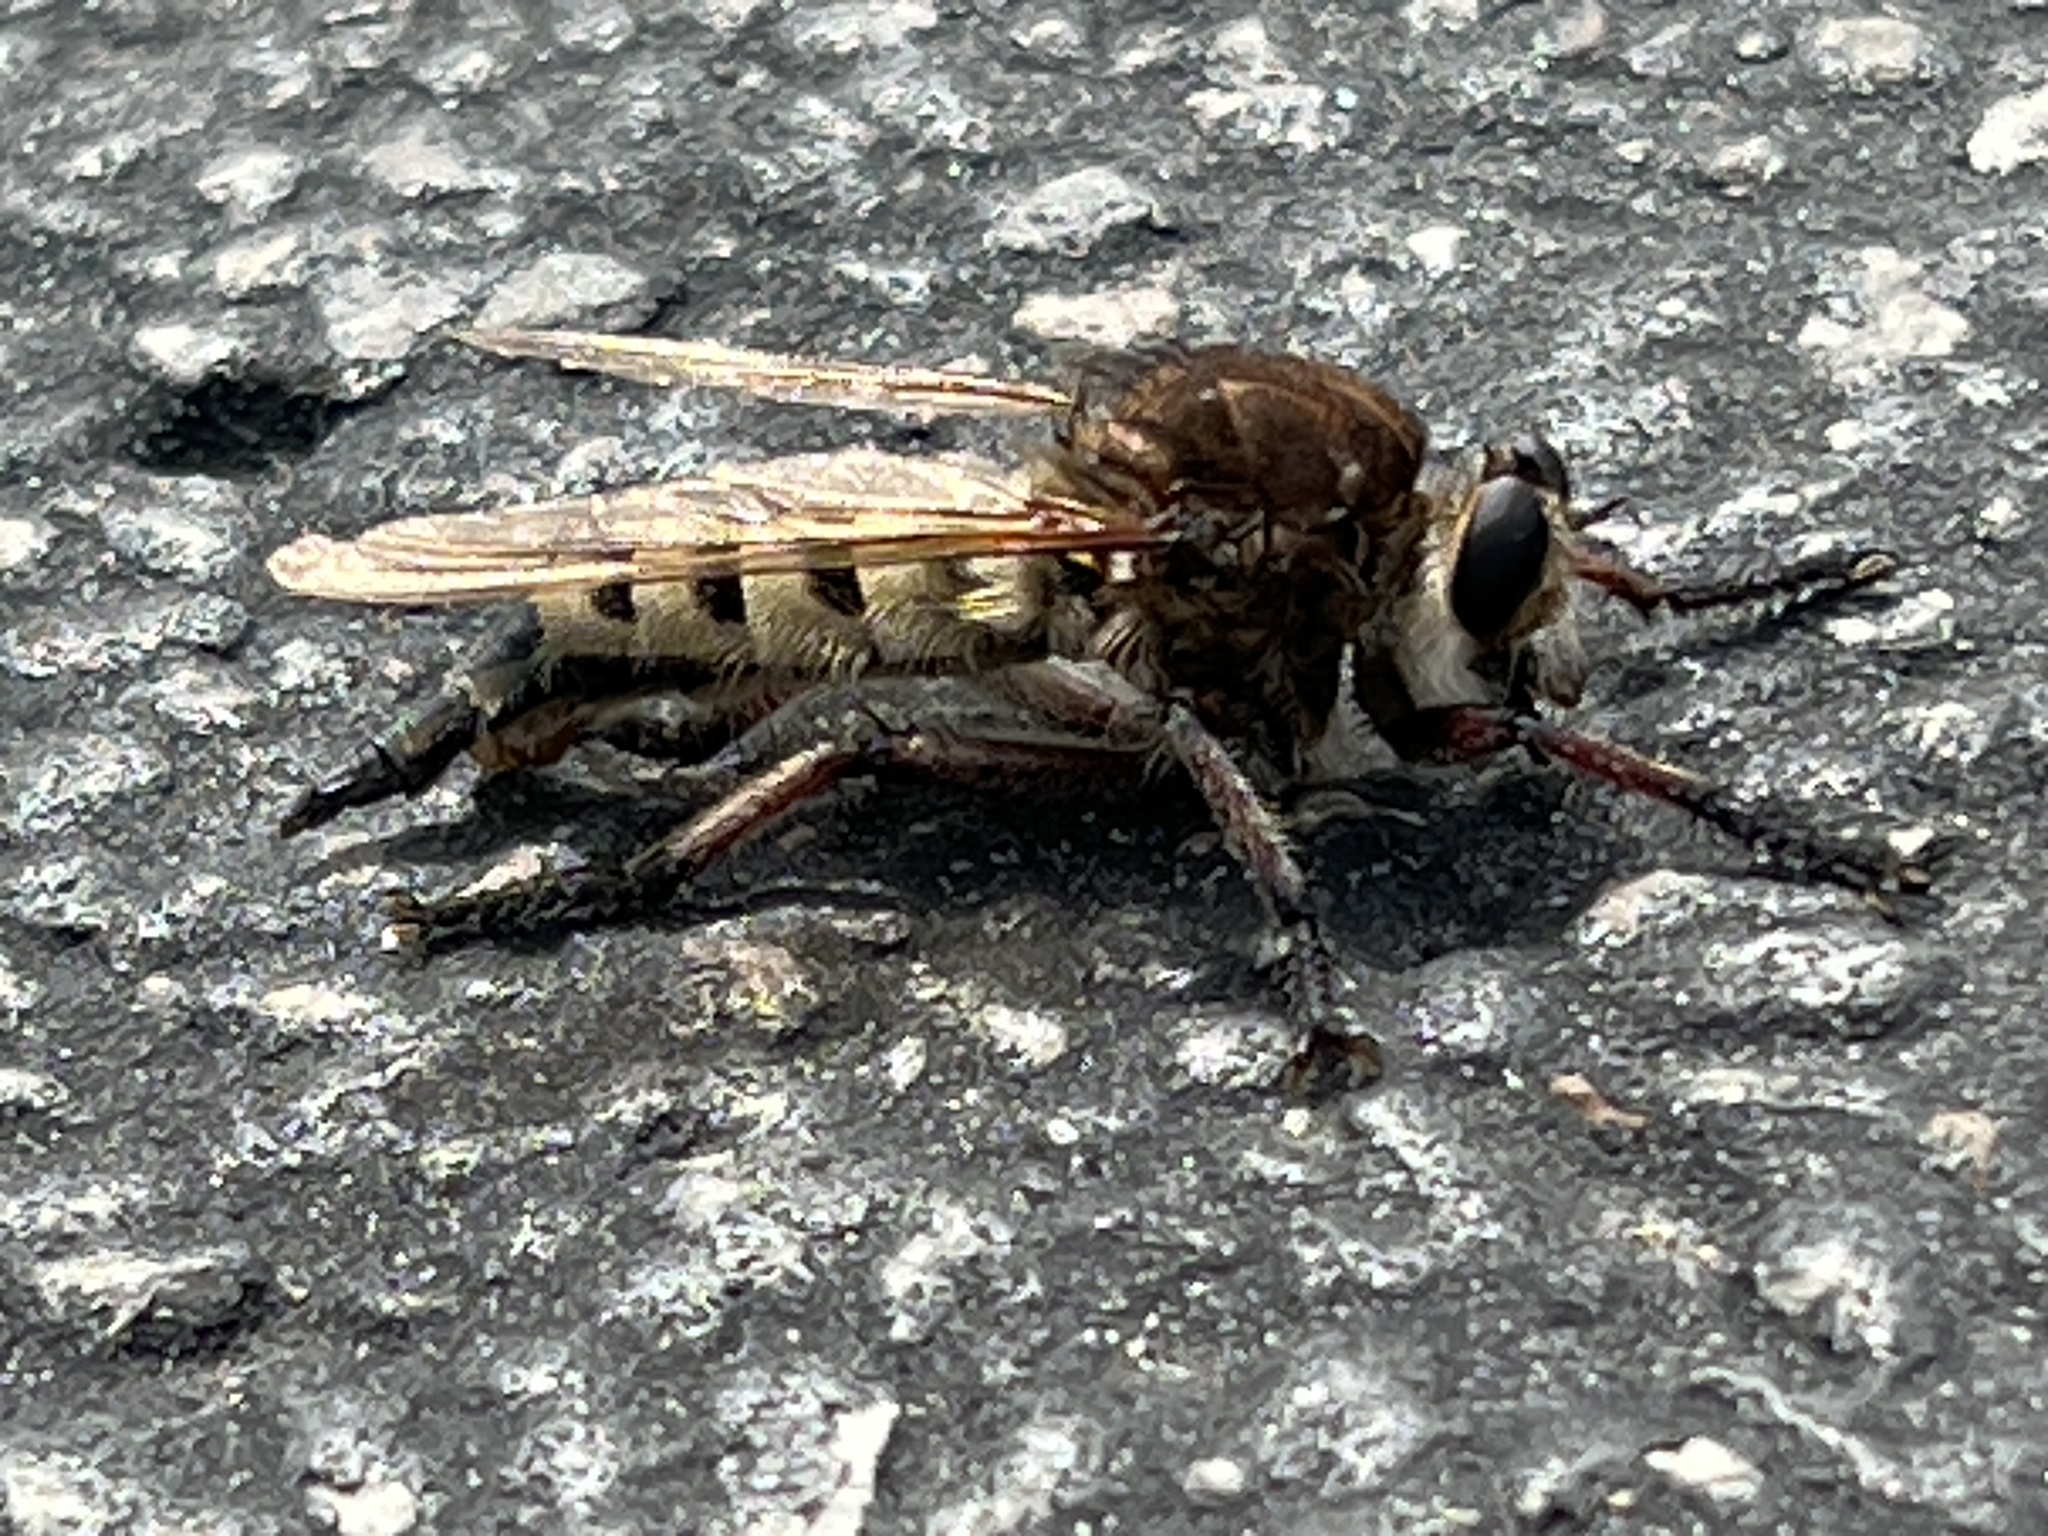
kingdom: Animalia
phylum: Arthropoda
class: Insecta
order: Diptera
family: Asilidae
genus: Promachus
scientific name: Promachus hinei
